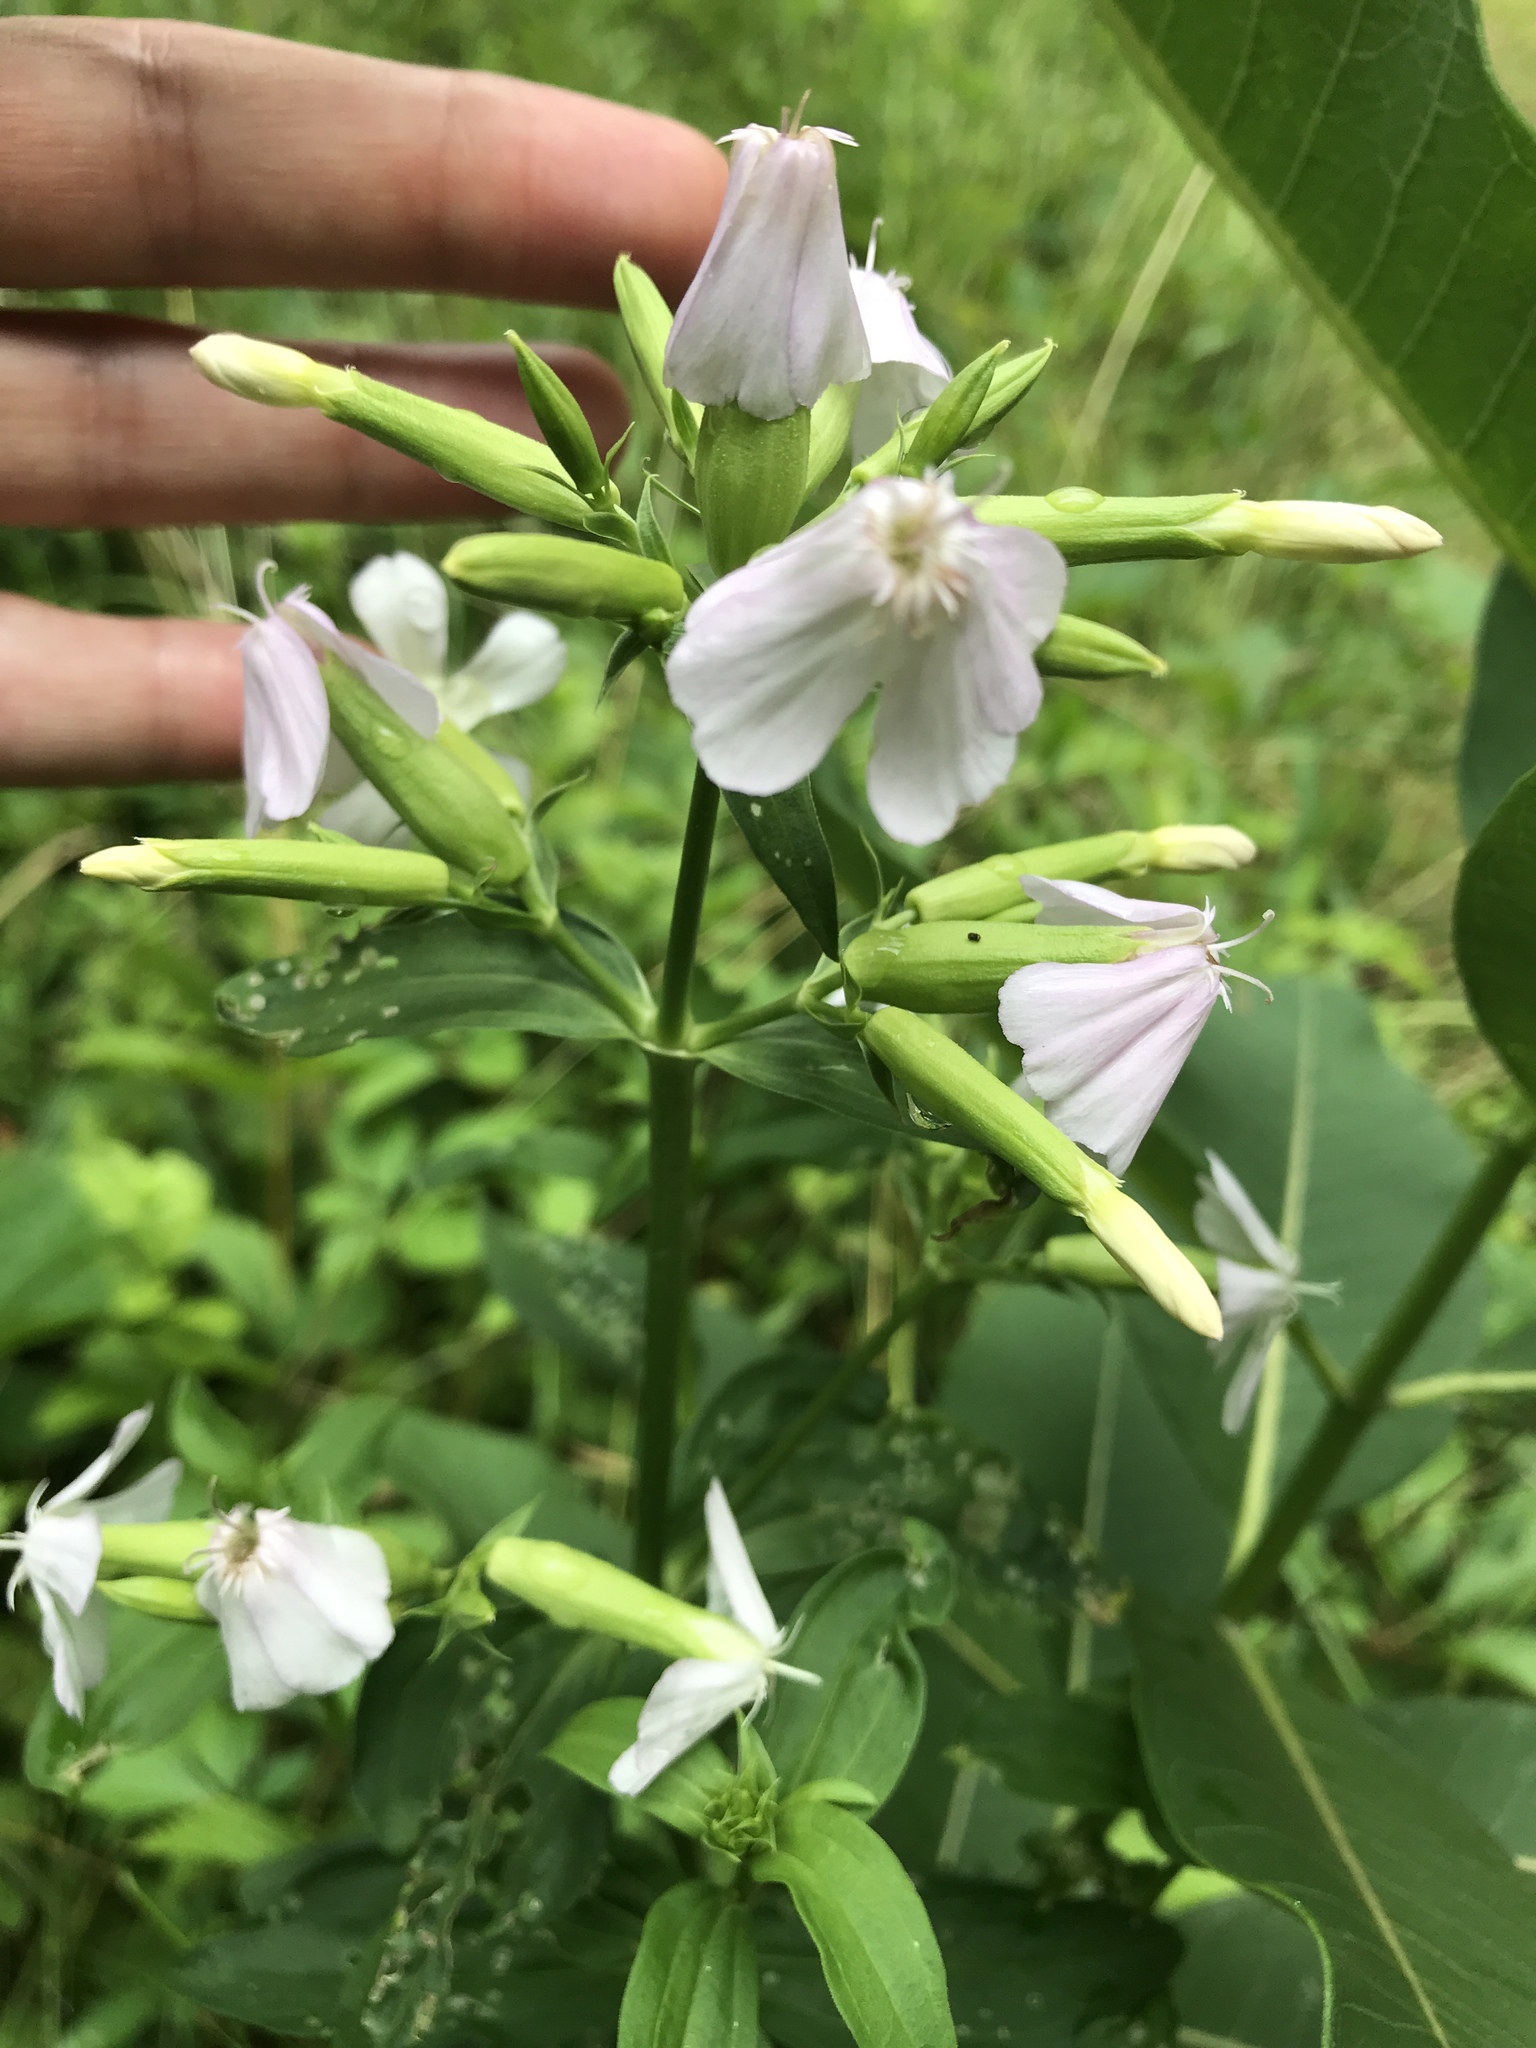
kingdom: Plantae
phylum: Tracheophyta
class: Magnoliopsida
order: Caryophyllales
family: Caryophyllaceae
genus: Saponaria
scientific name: Saponaria officinalis
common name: Soapwort
